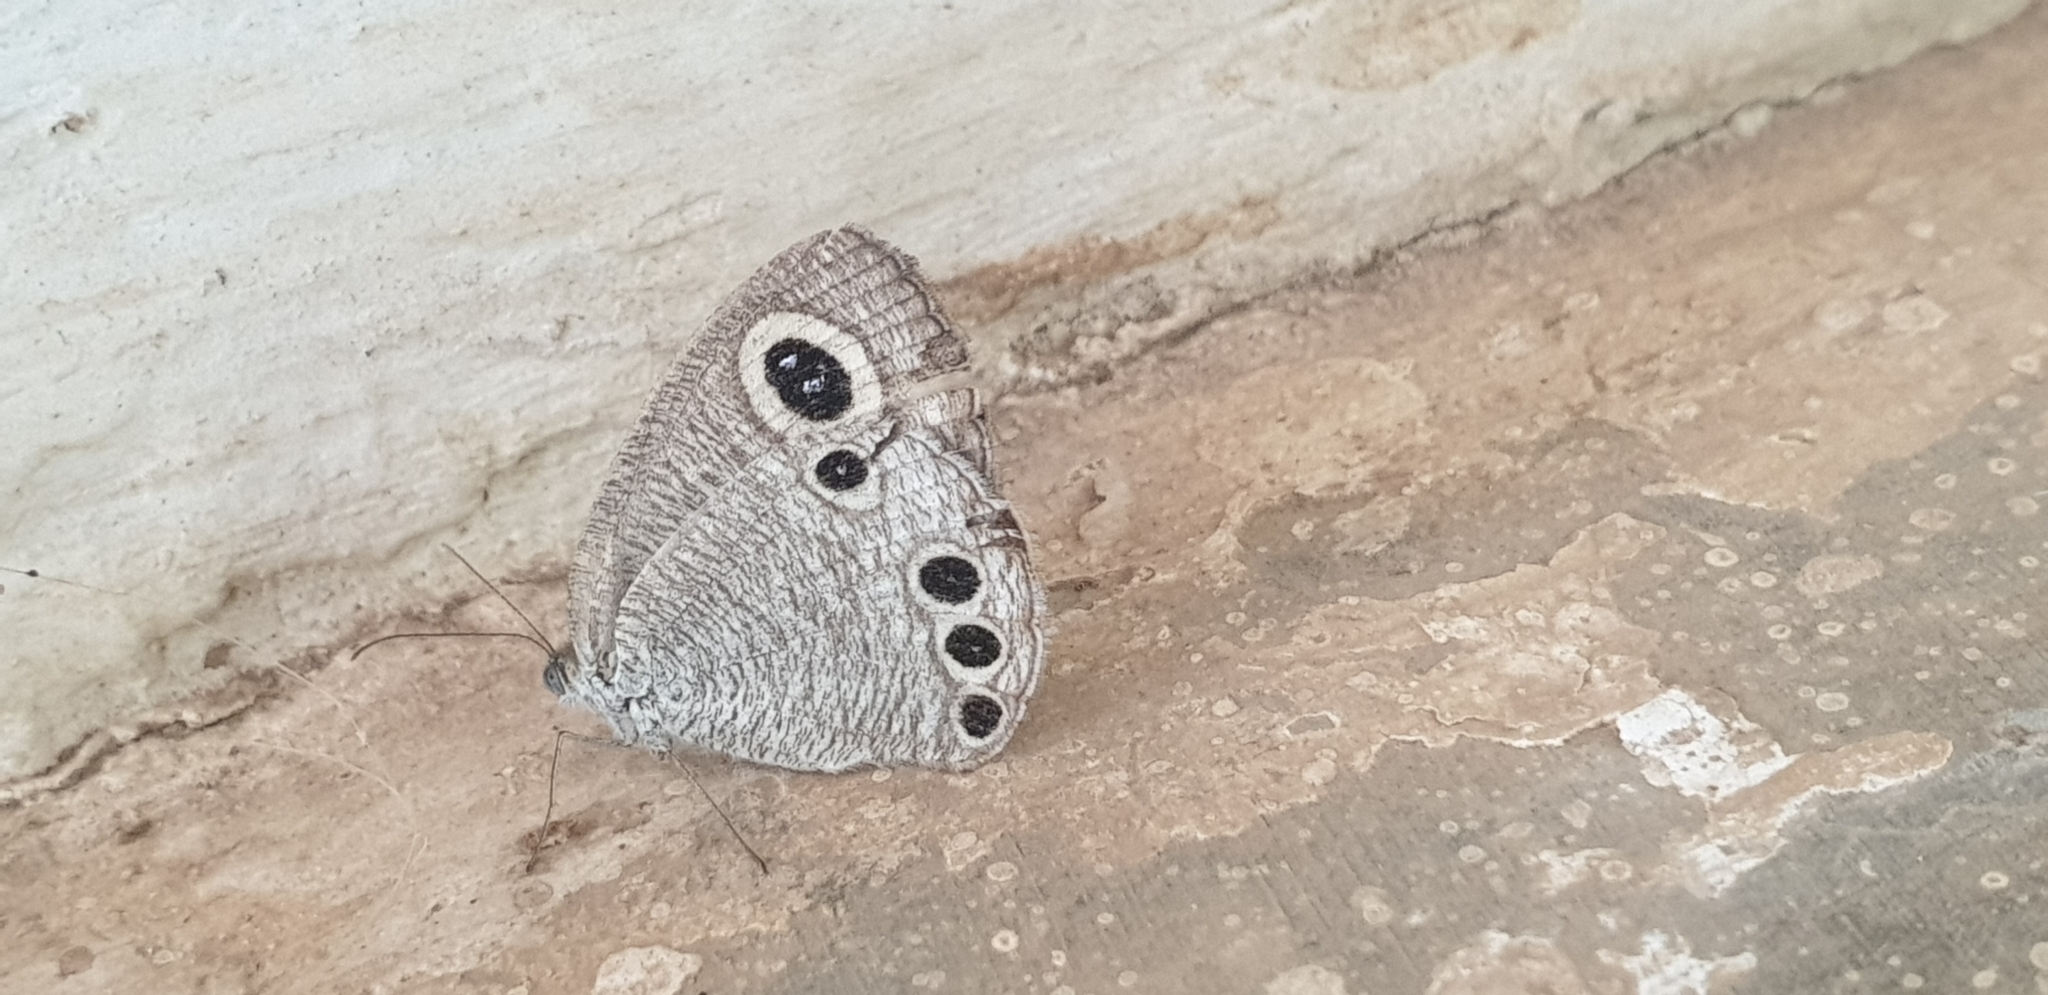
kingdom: Animalia
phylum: Arthropoda
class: Insecta
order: Lepidoptera
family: Nymphalidae
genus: Ypthima
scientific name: Ypthima huebneri
